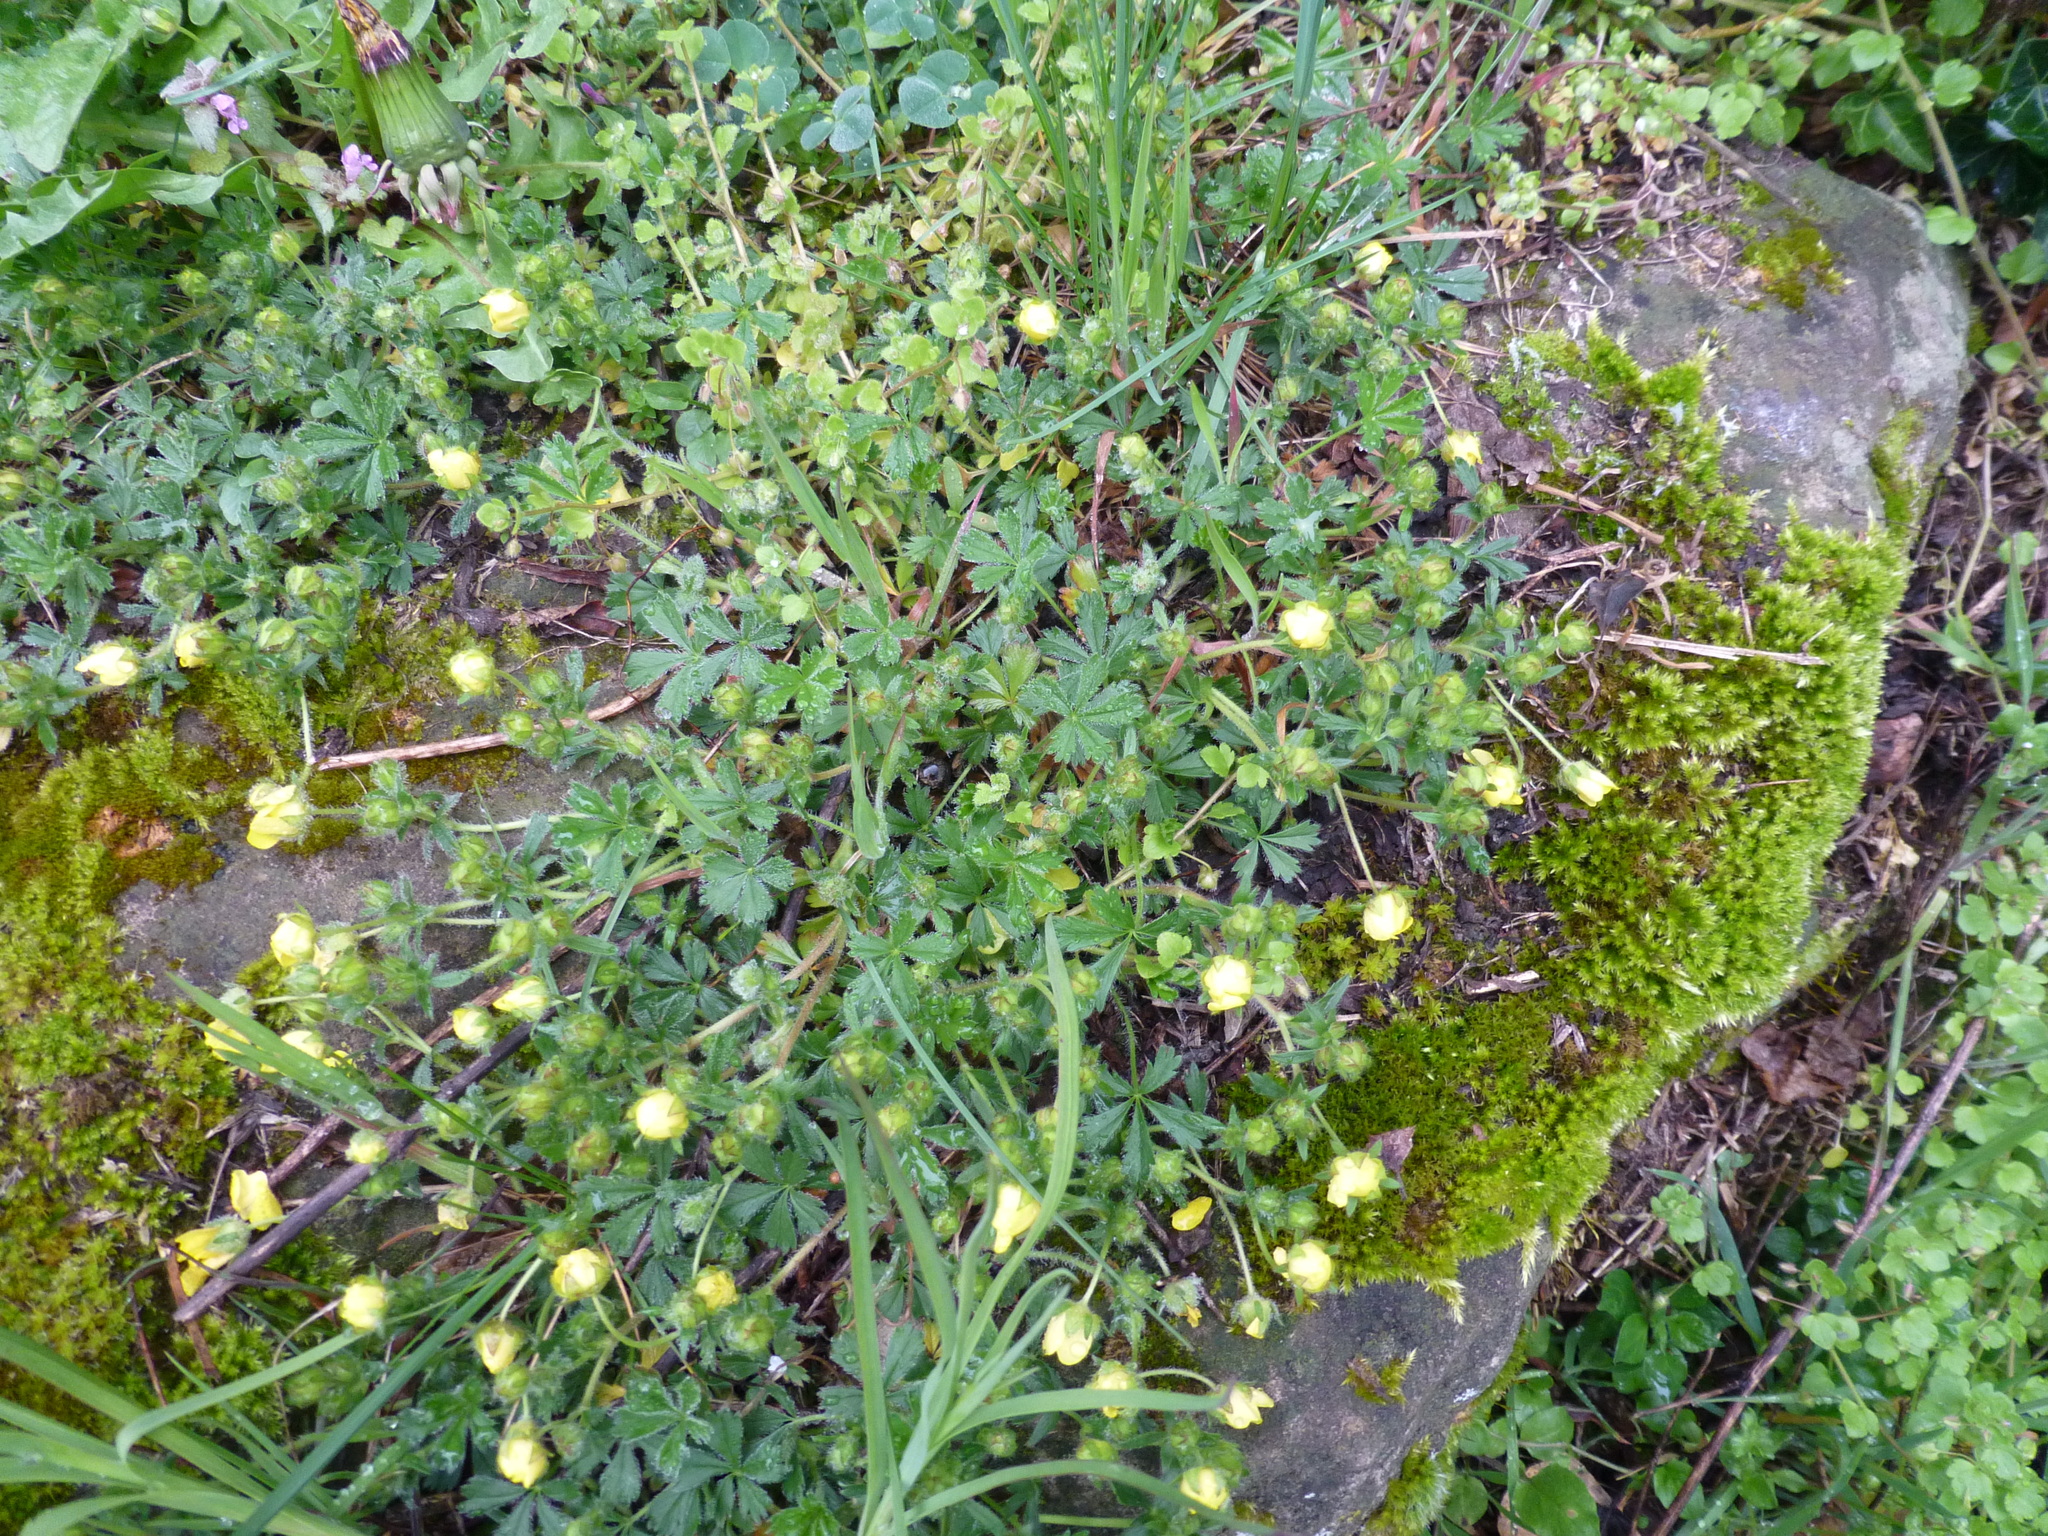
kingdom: Plantae
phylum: Tracheophyta
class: Magnoliopsida
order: Rosales
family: Rosaceae
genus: Potentilla
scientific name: Potentilla verna
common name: Spring cinquefoil
